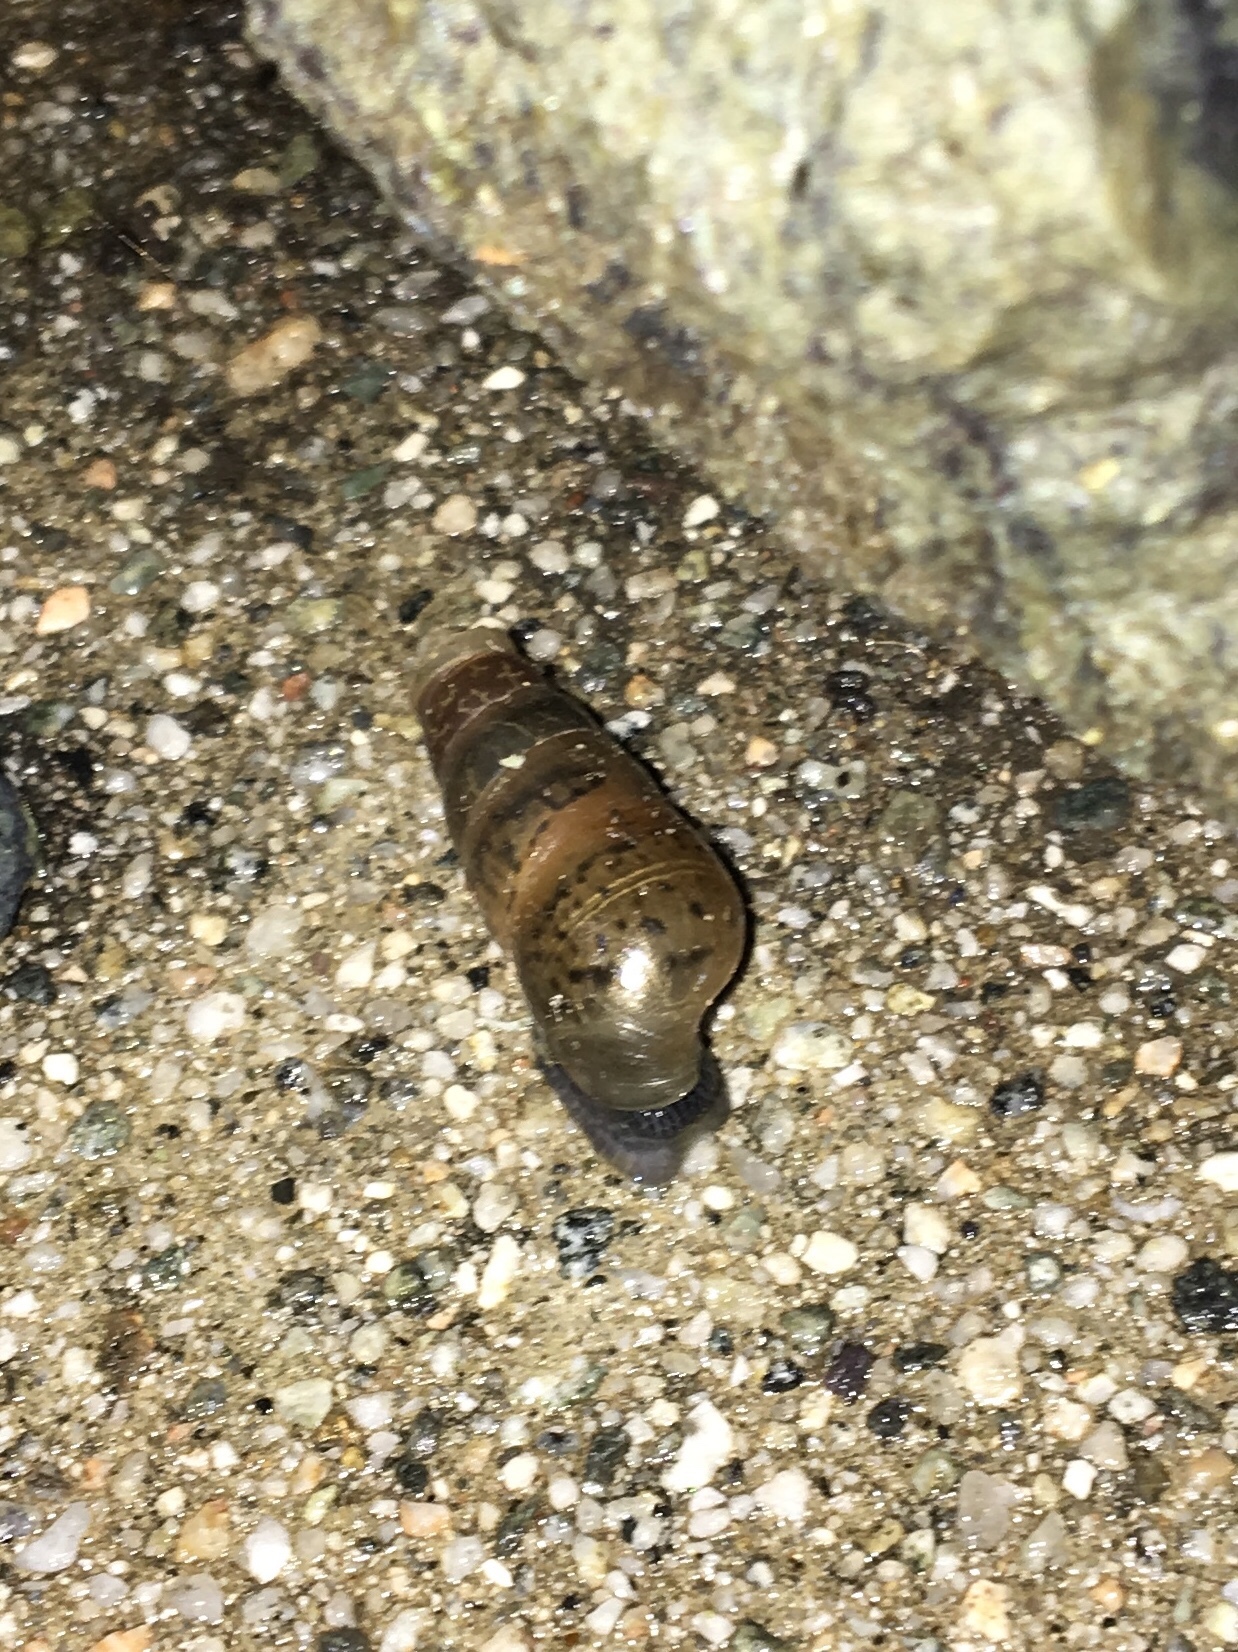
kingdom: Animalia
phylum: Mollusca
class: Gastropoda
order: Stylommatophora
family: Achatinidae
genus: Rumina
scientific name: Rumina decollata
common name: Decollate snail
